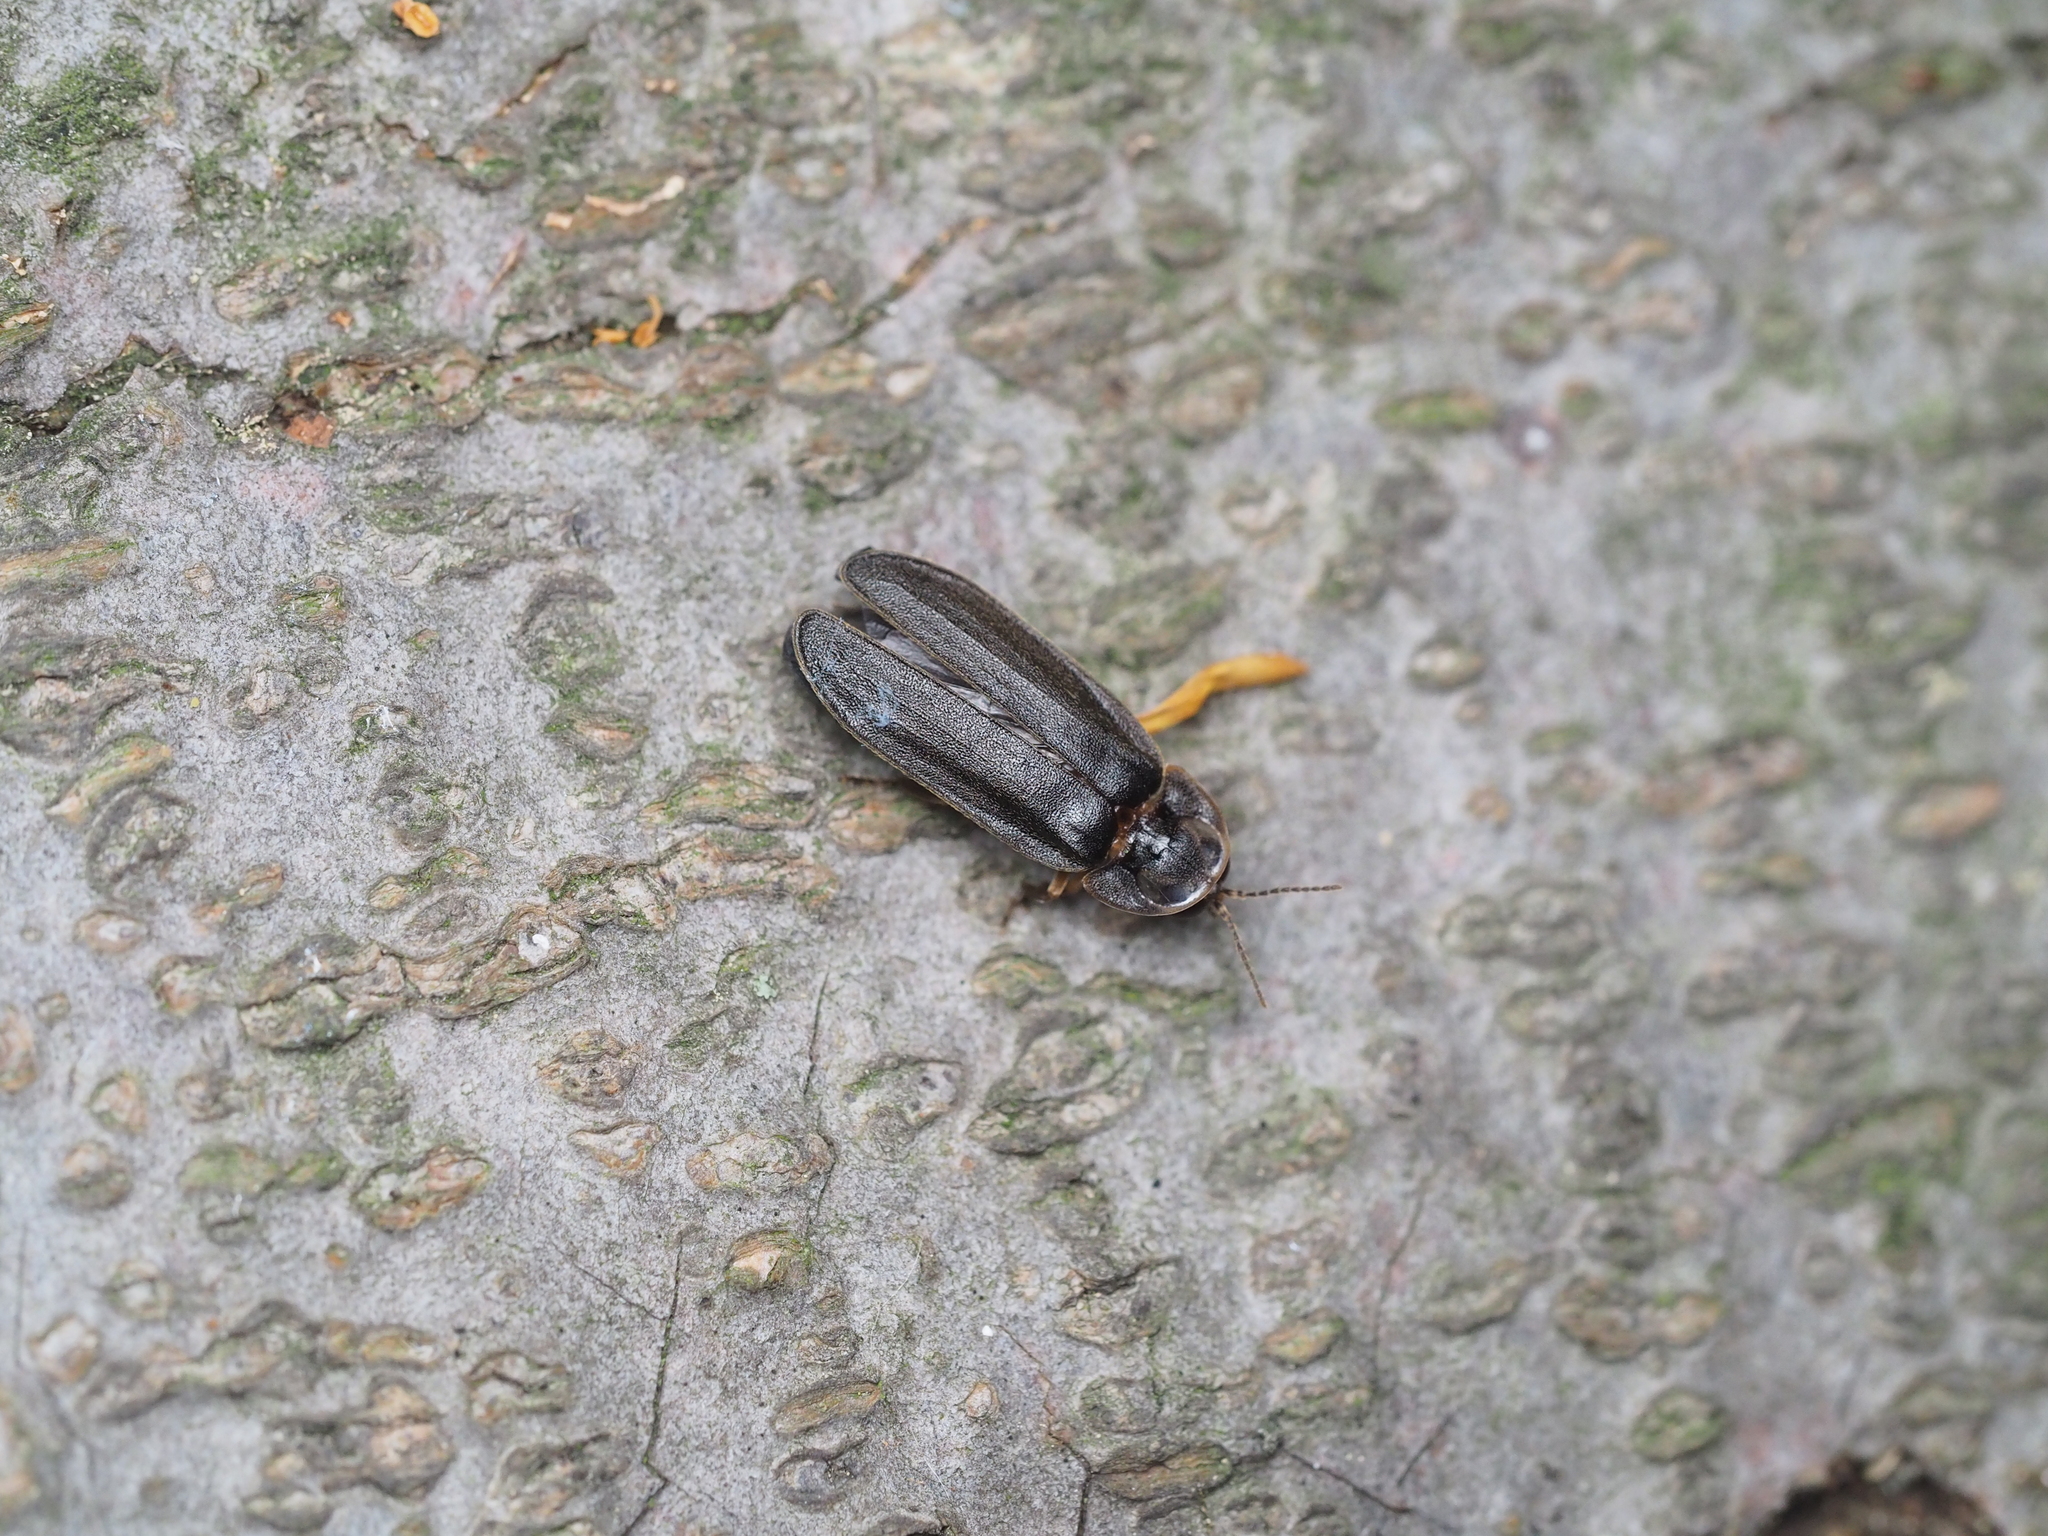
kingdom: Animalia
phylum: Arthropoda
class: Insecta
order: Coleoptera
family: Lampyridae
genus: Lamprohiza
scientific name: Lamprohiza splendidula
